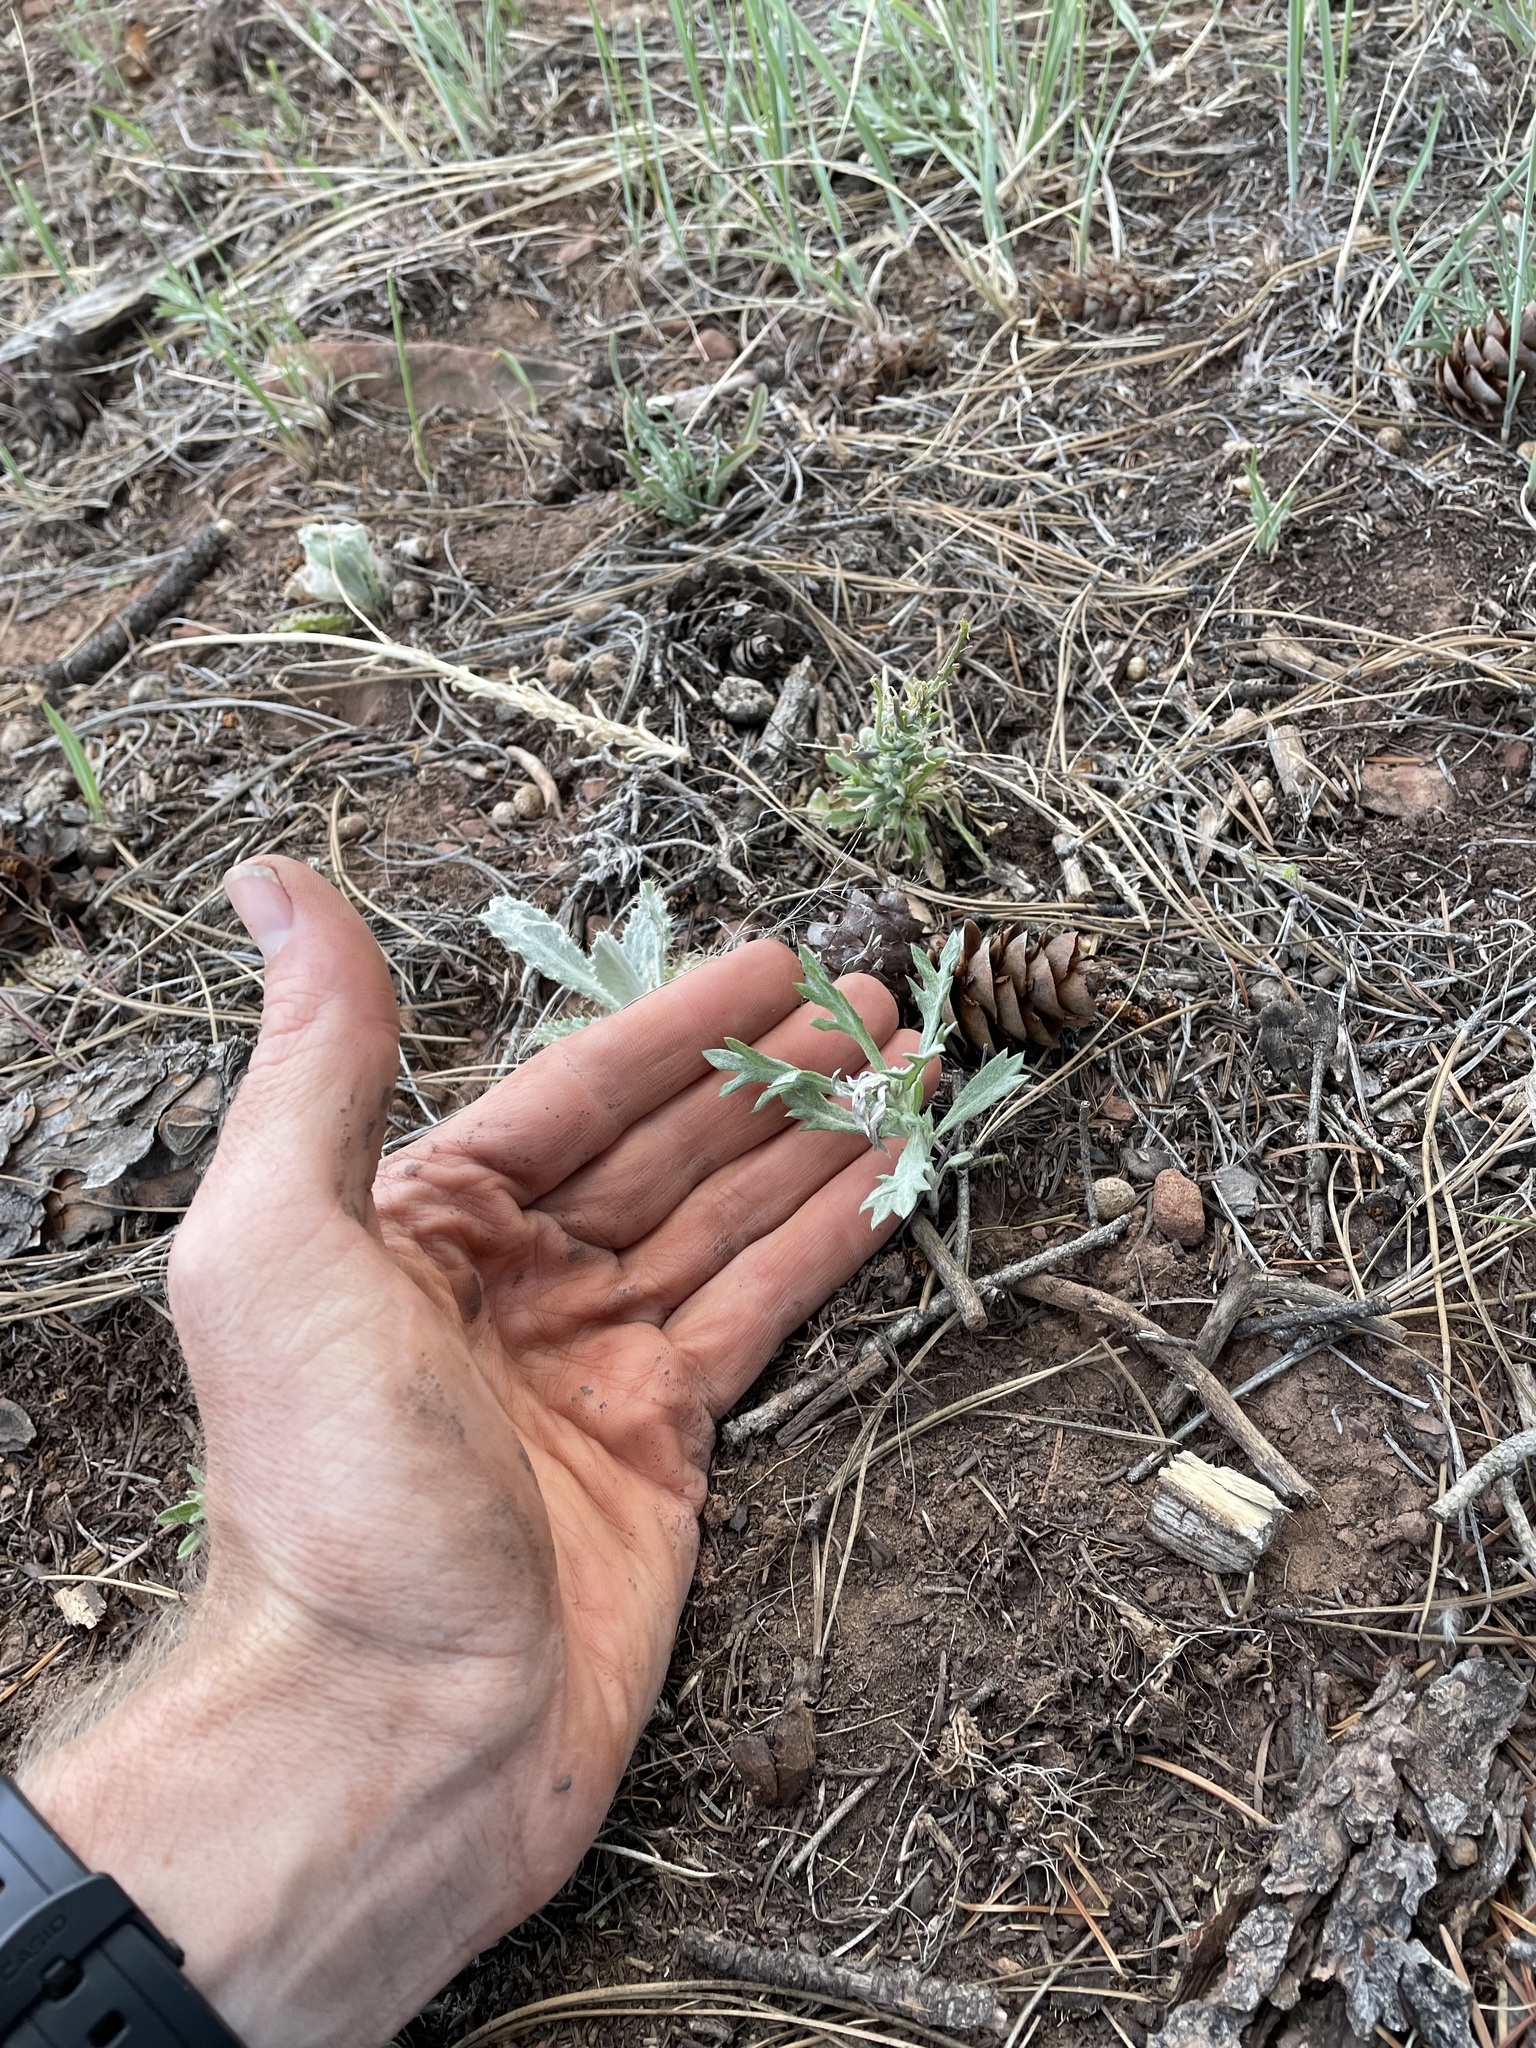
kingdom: Plantae
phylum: Tracheophyta
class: Magnoliopsida
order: Asterales
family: Asteraceae
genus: Artemisia
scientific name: Artemisia ludoviciana
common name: Western mugwort
